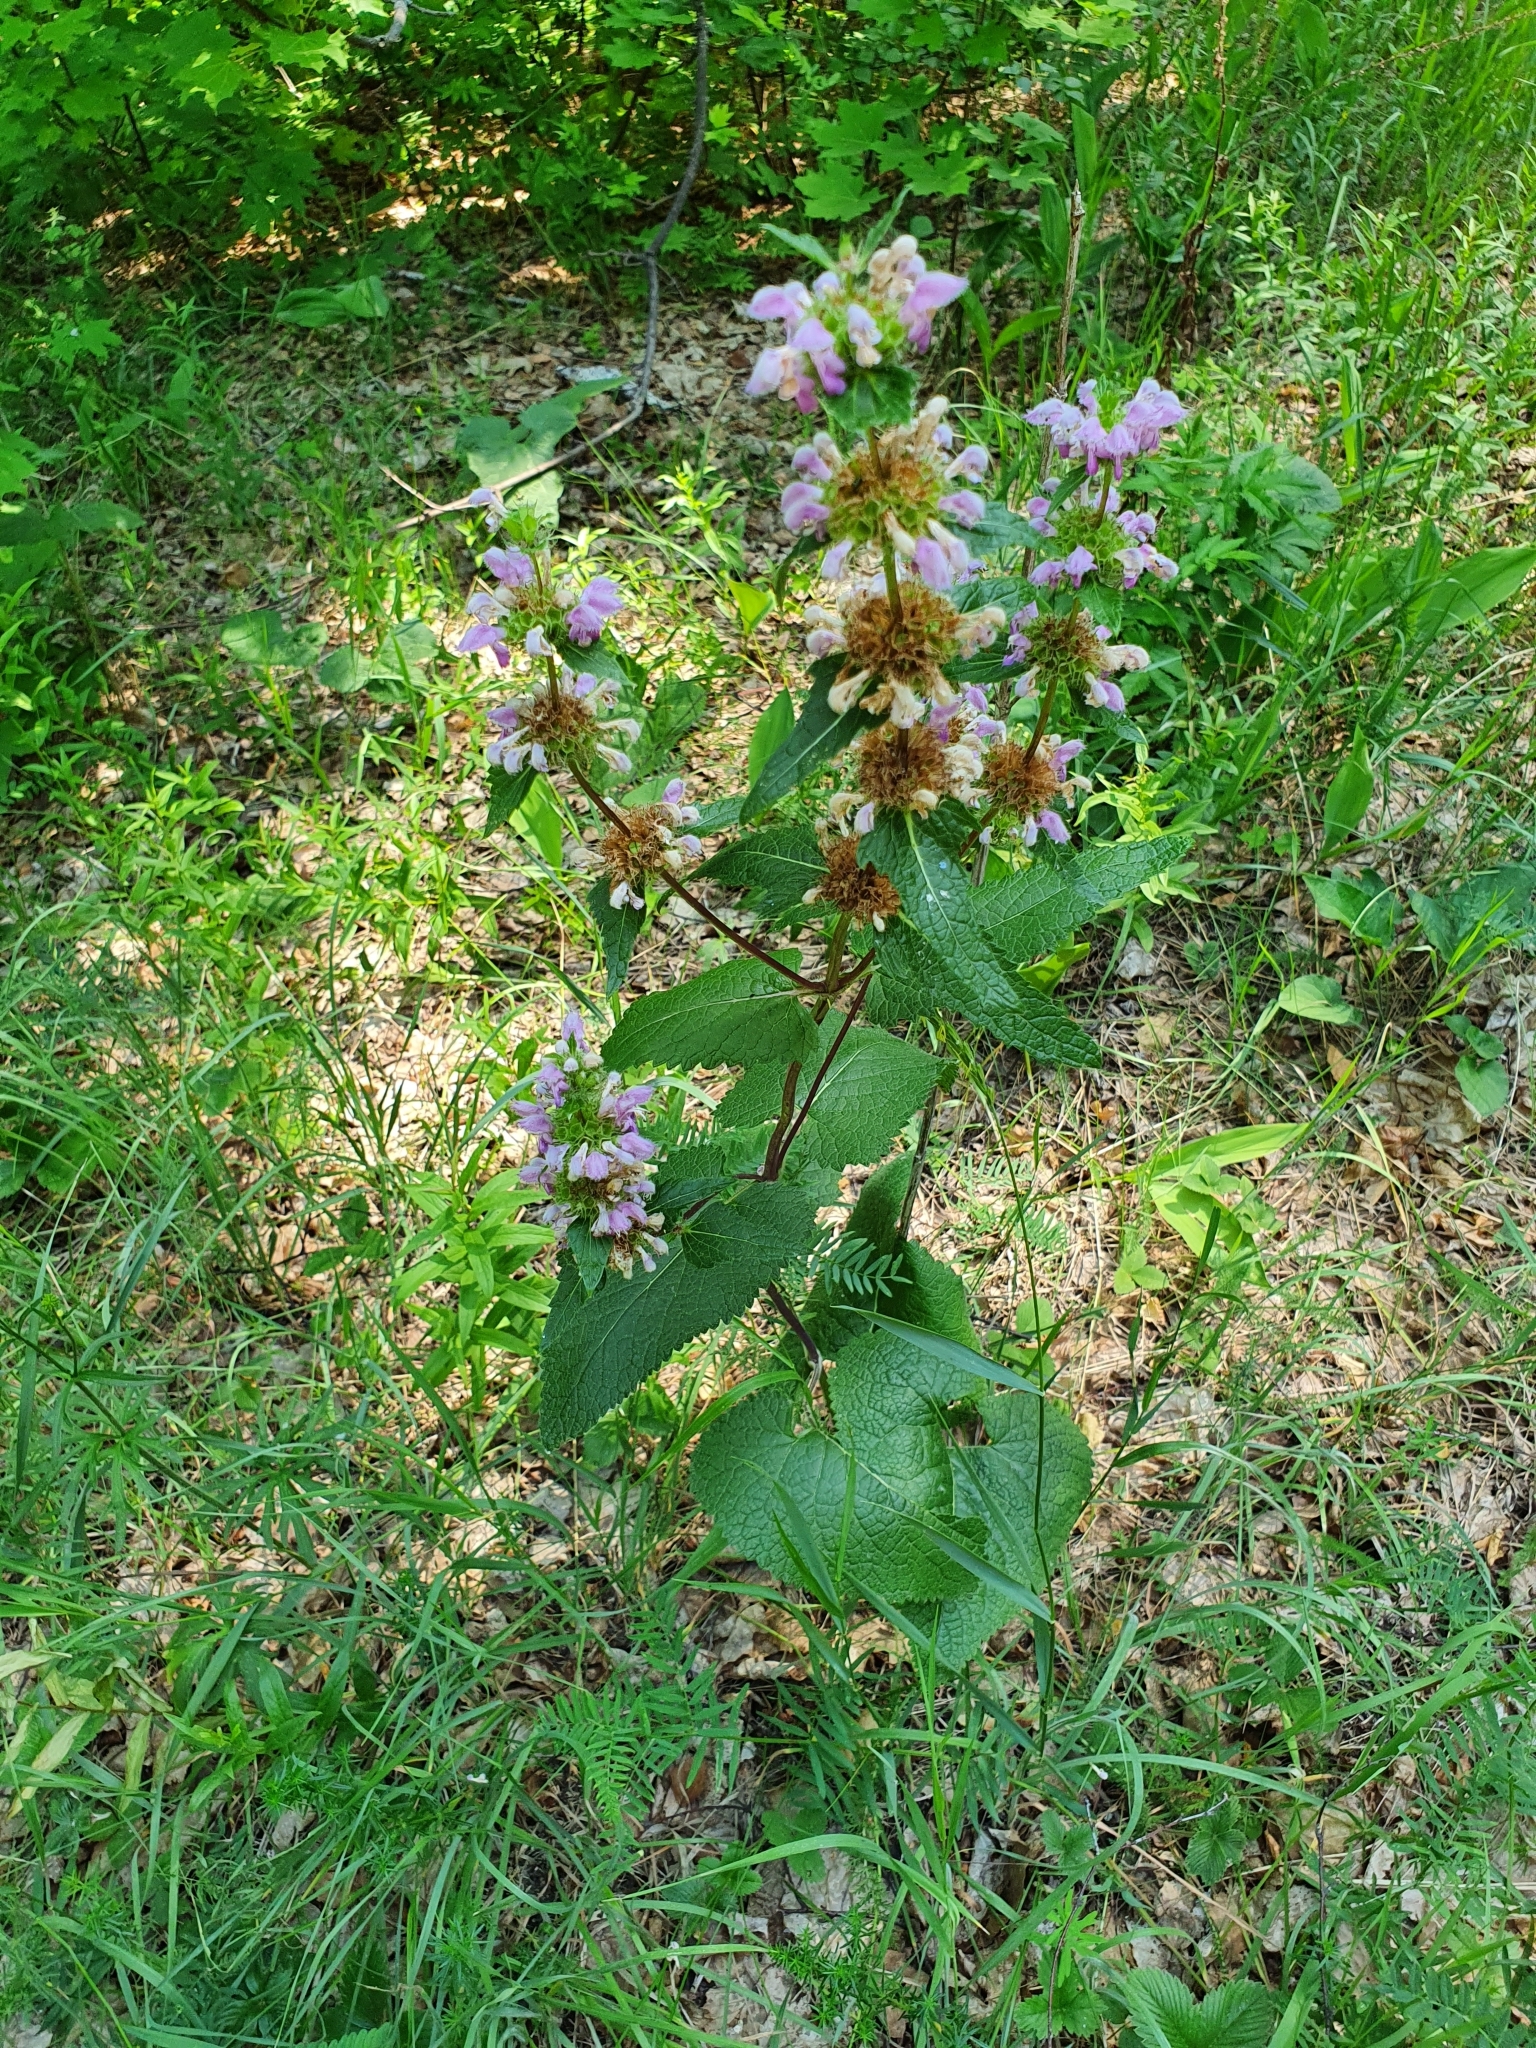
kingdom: Plantae
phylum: Tracheophyta
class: Magnoliopsida
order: Lamiales
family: Lamiaceae
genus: Phlomoides
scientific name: Phlomoides tuberosa
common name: Tuberous jerusalem sage
